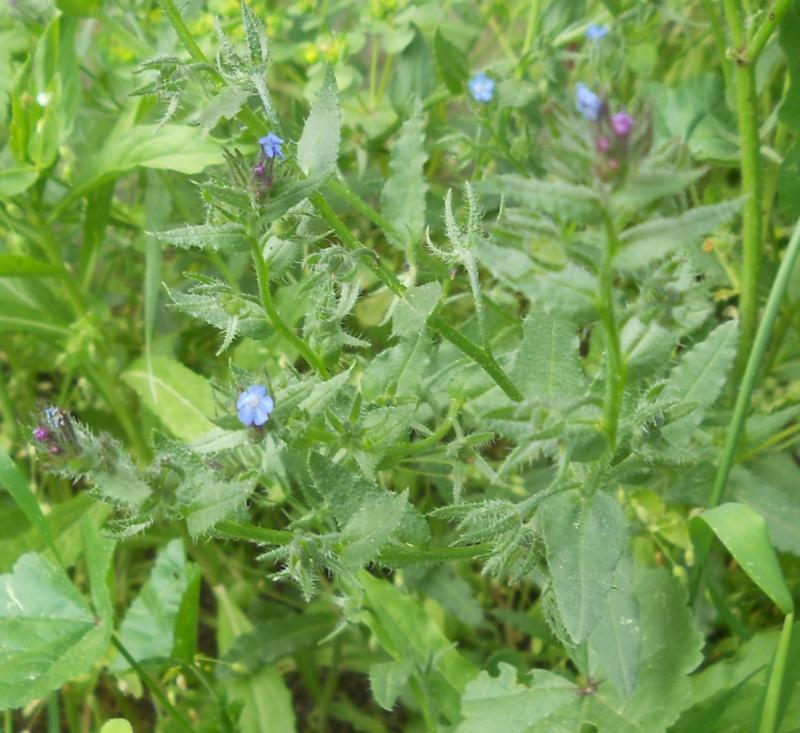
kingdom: Plantae
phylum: Tracheophyta
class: Magnoliopsida
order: Boraginales
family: Boraginaceae
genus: Lycopsis
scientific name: Lycopsis arvensis
